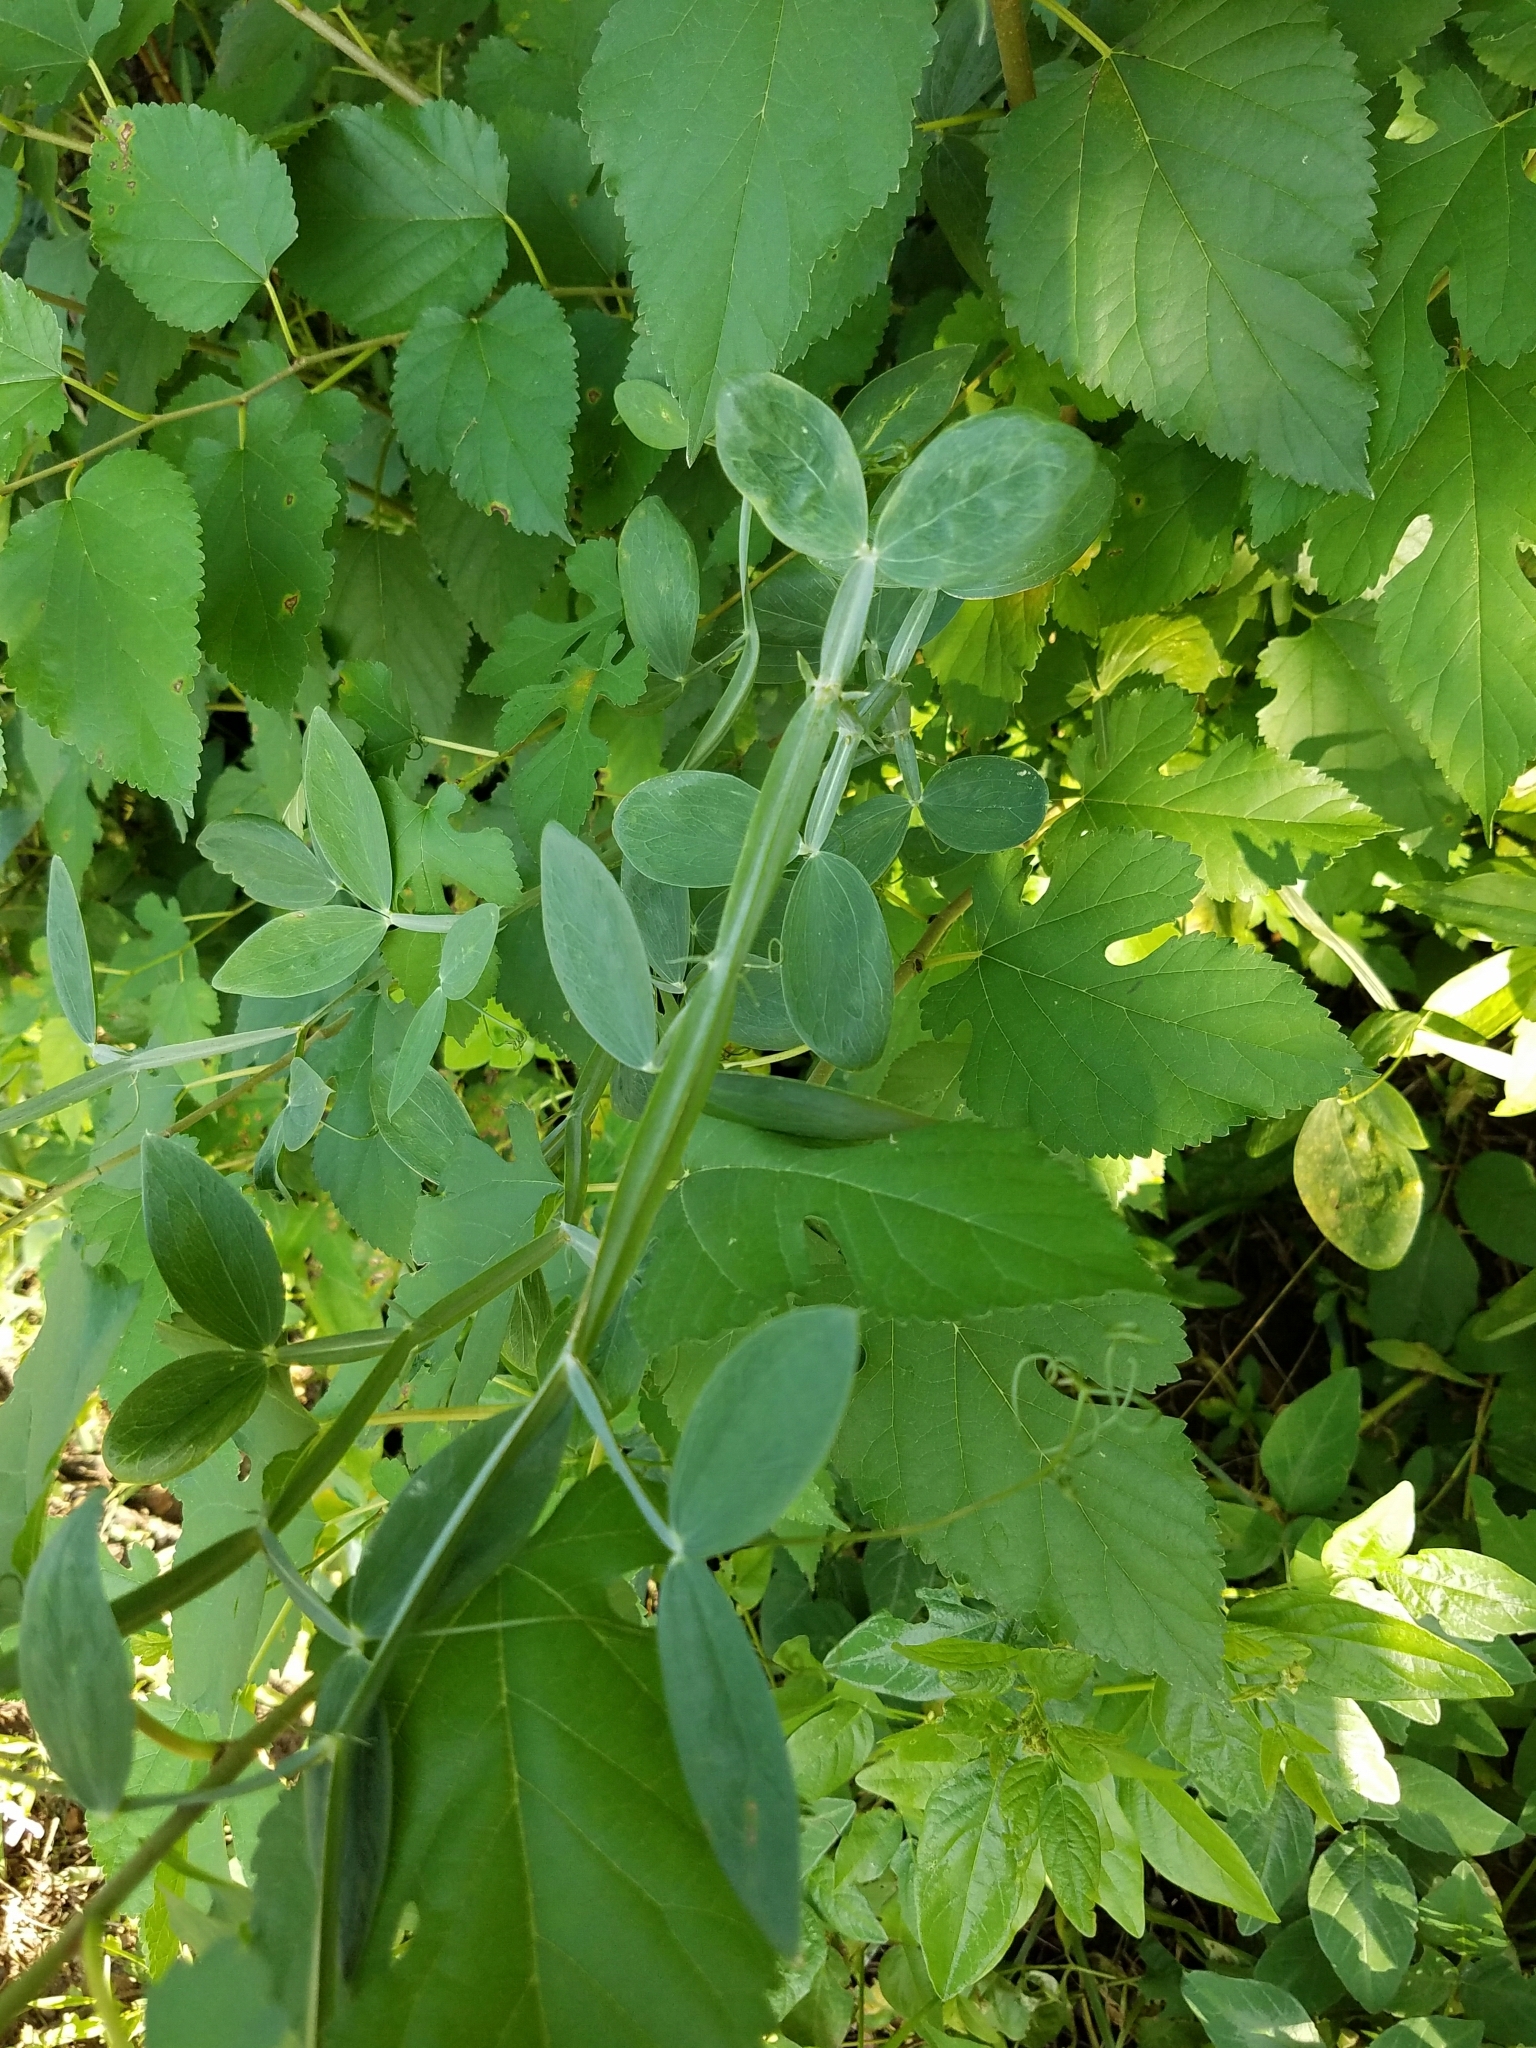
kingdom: Plantae
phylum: Tracheophyta
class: Magnoliopsida
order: Fabales
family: Fabaceae
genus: Lathyrus
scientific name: Lathyrus latifolius
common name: Perennial pea
